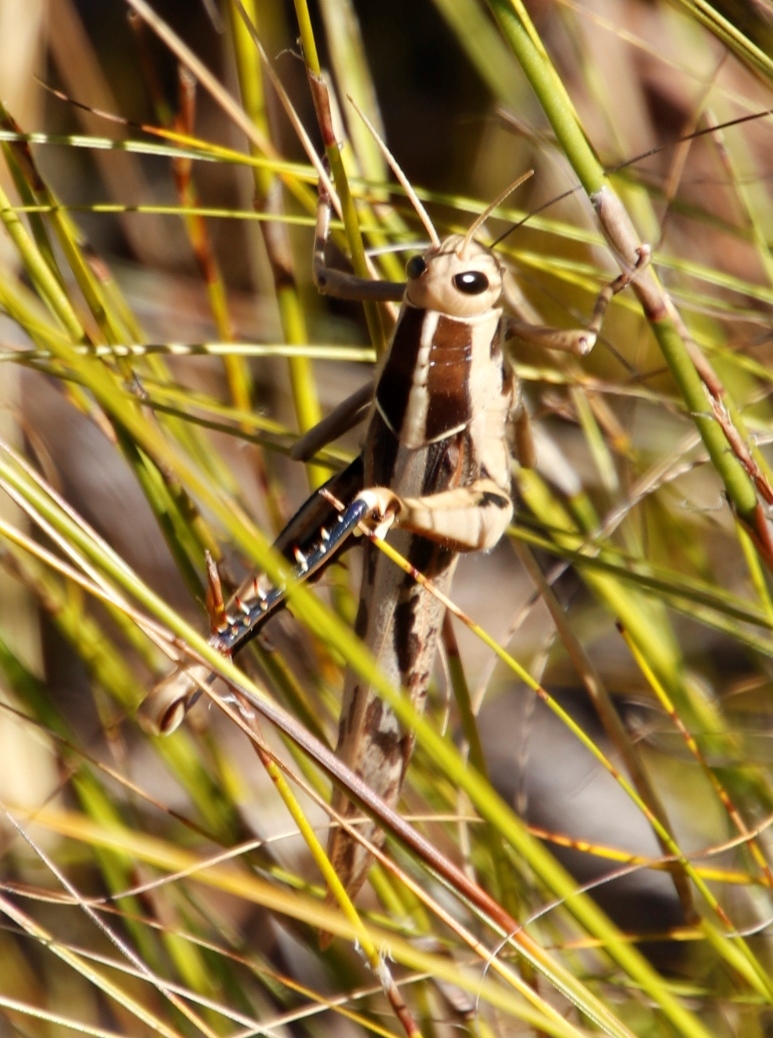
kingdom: Animalia
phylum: Arthropoda
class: Insecta
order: Orthoptera
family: Acrididae
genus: Acanthacris
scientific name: Acanthacris ruficornis
